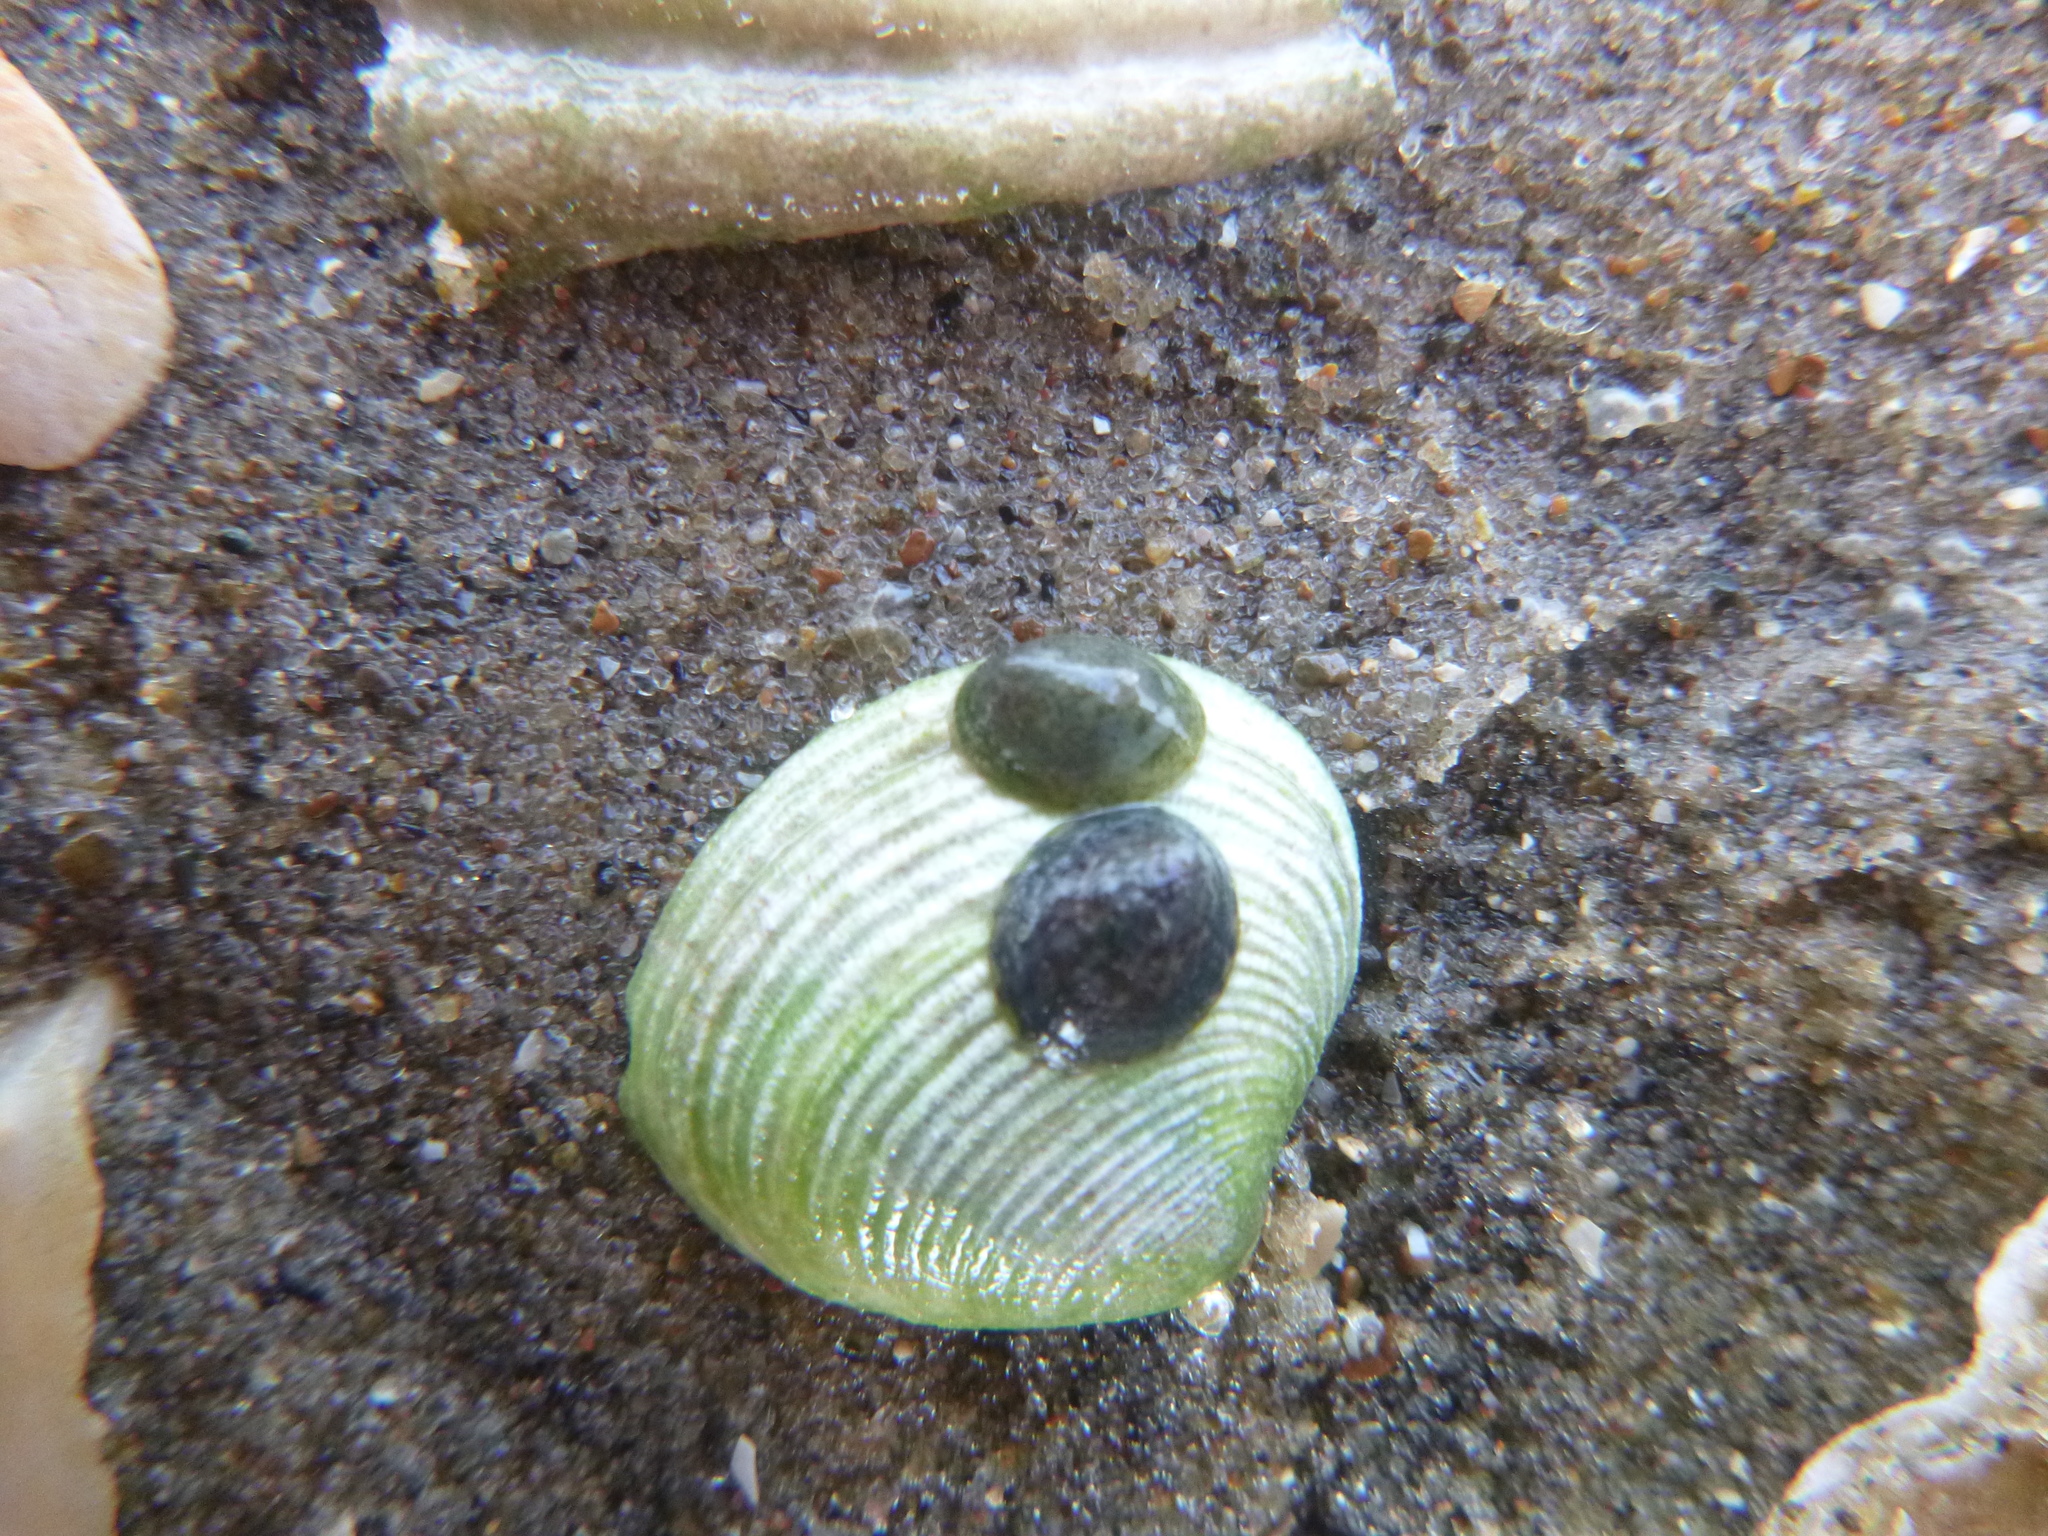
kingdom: Animalia
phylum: Mollusca
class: Gastropoda
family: Lottiidae
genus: Notoacmea
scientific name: Notoacmea potae
